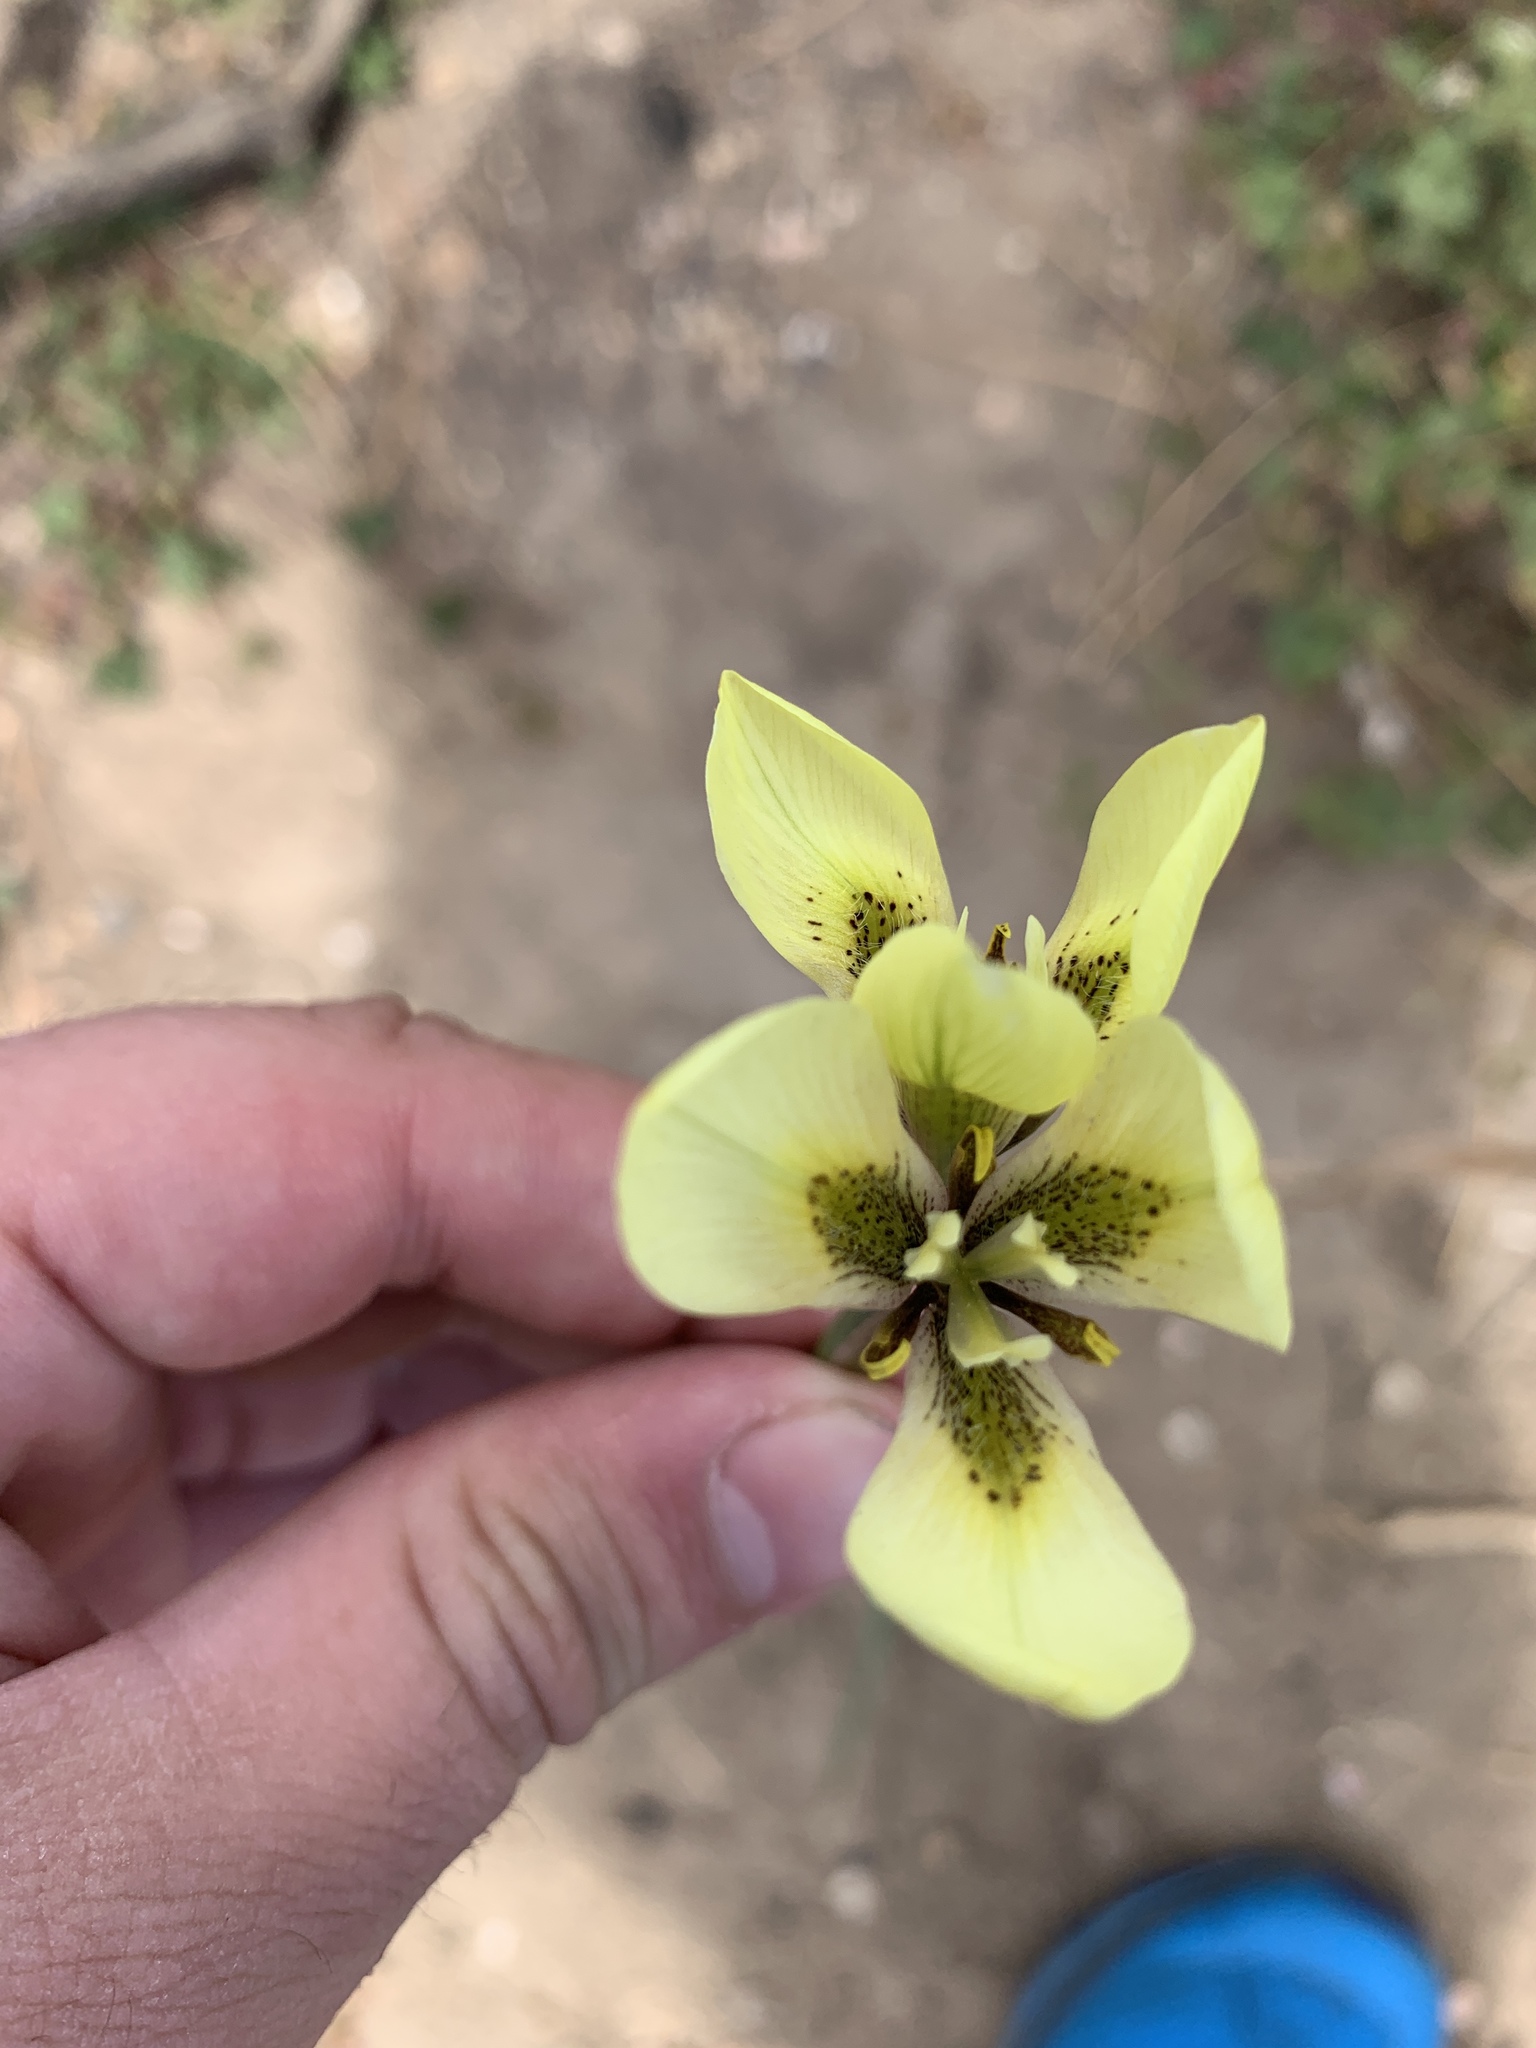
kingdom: Plantae
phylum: Tracheophyta
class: Liliopsida
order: Asparagales
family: Iridaceae
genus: Moraea
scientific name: Moraea bellendenii
